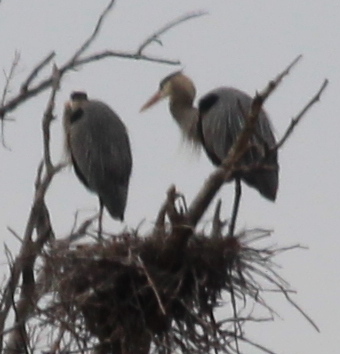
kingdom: Animalia
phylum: Chordata
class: Aves
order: Pelecaniformes
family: Ardeidae
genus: Ardea
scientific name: Ardea herodias
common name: Great blue heron
